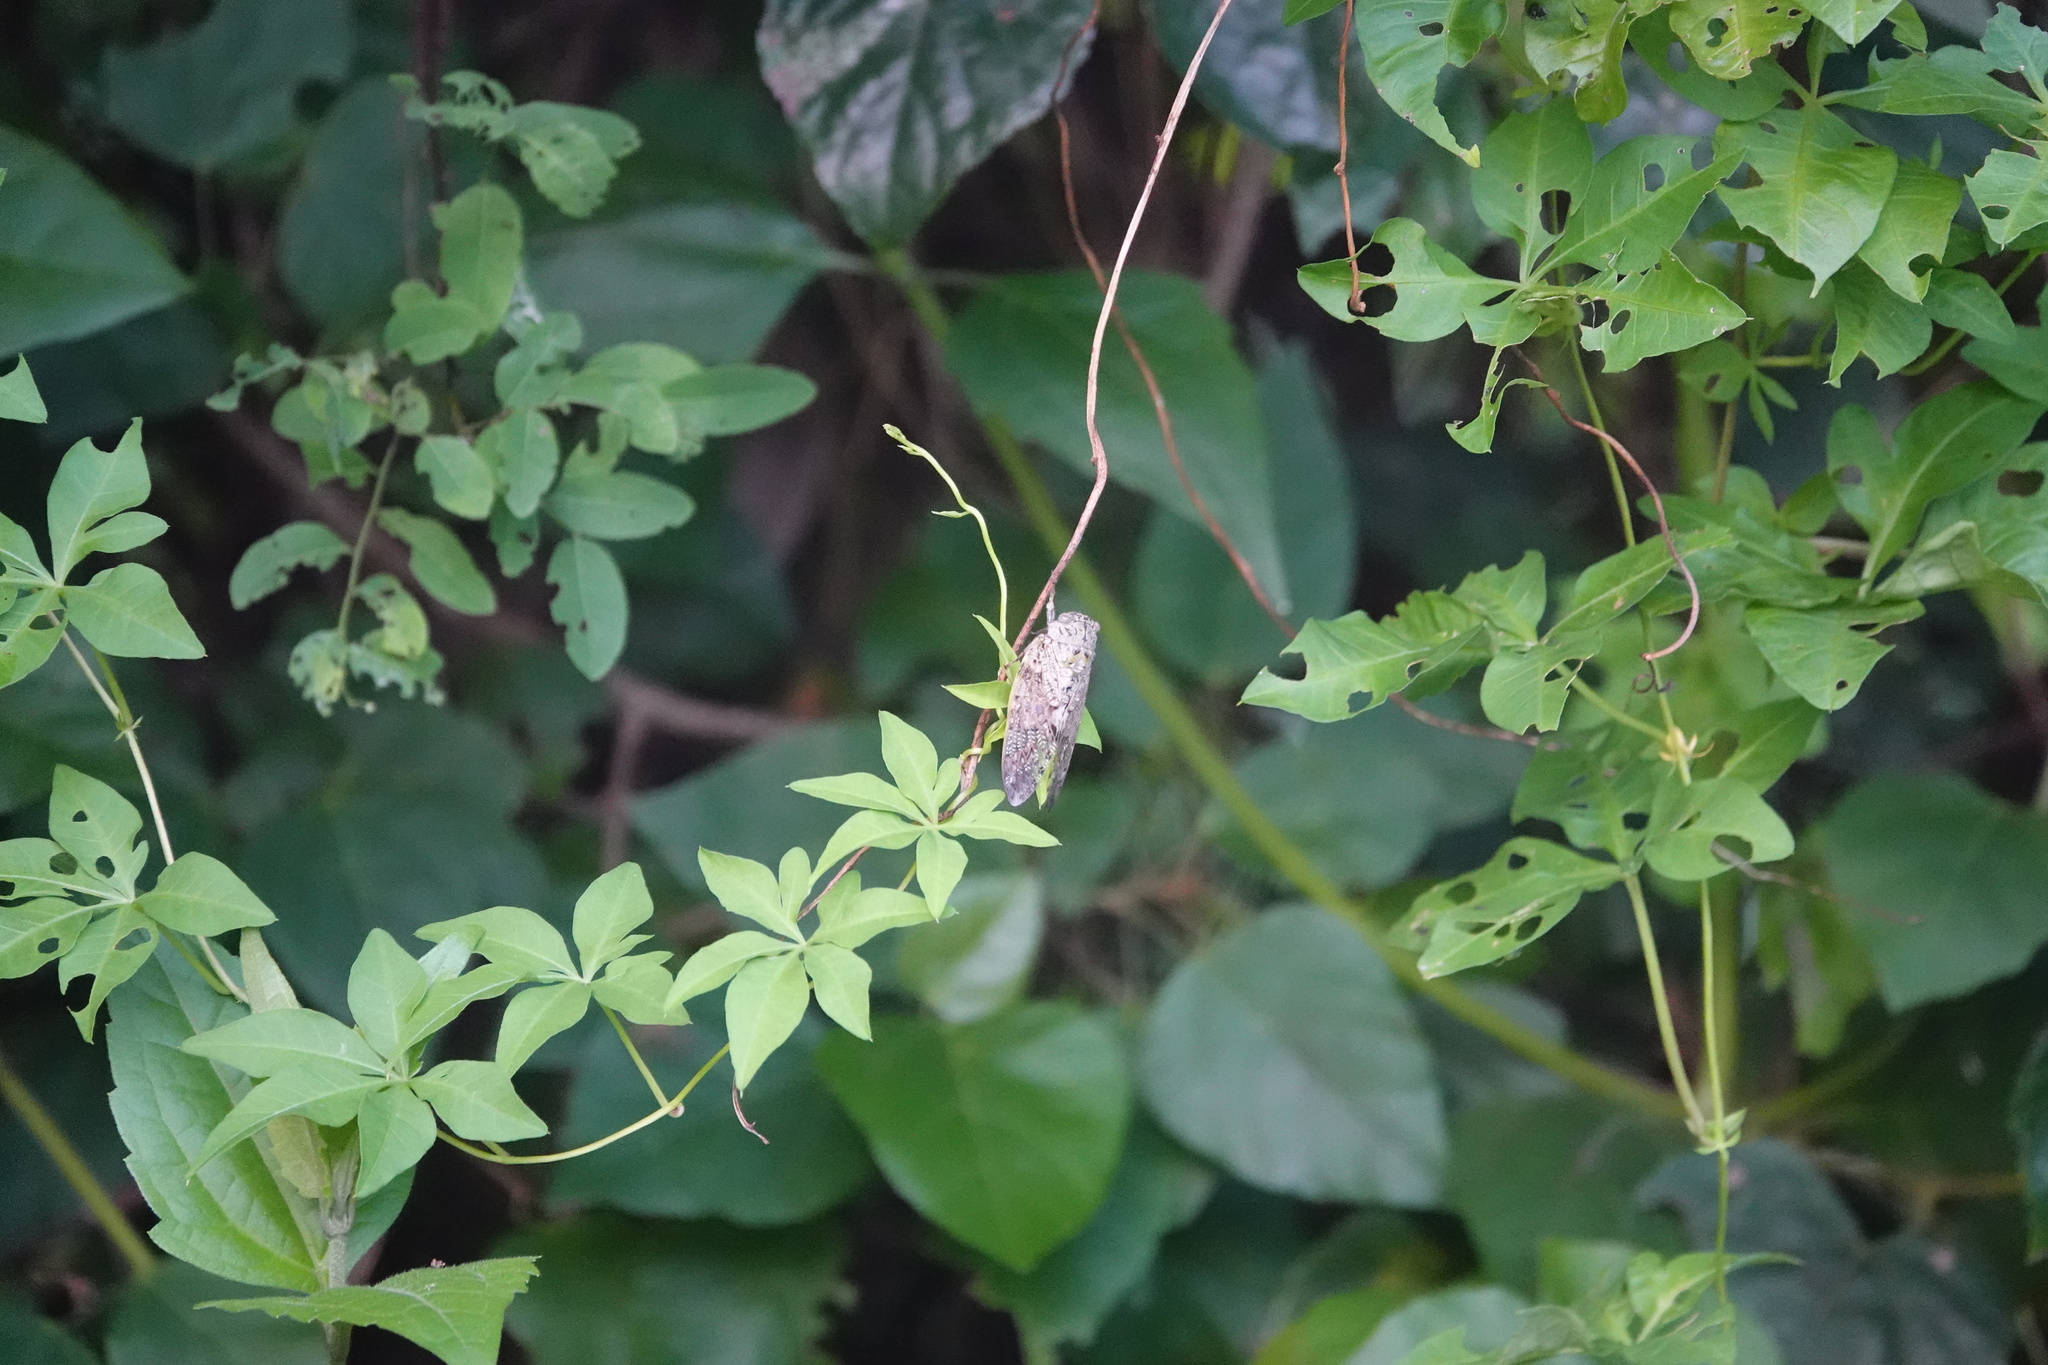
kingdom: Animalia
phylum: Arthropoda
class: Insecta
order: Hemiptera
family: Cicadidae
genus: Platypleura
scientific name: Platypleura takasagona
